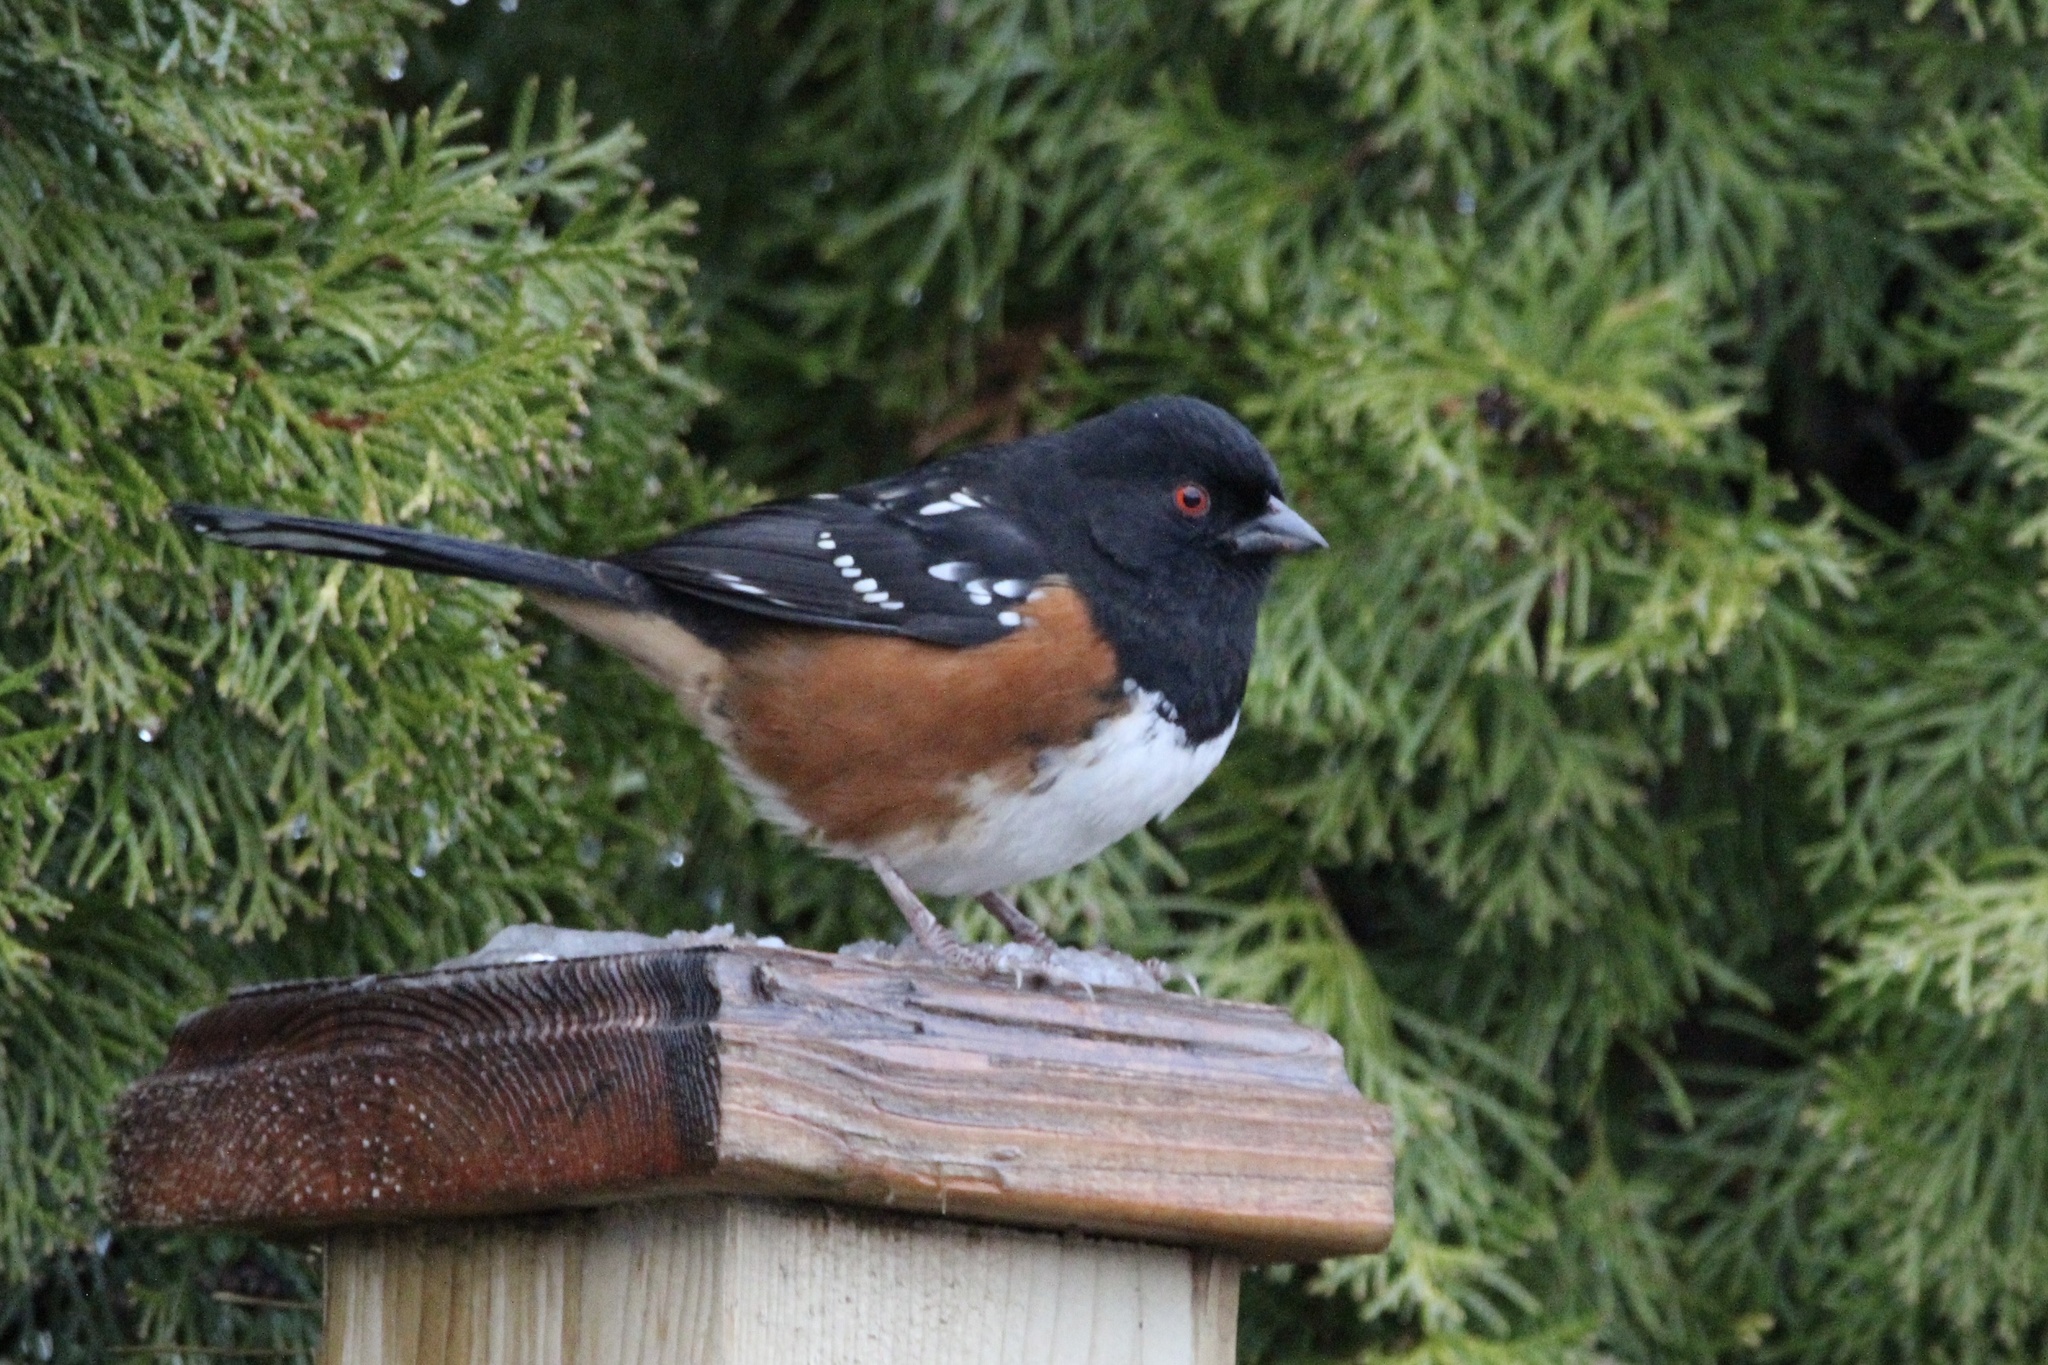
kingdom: Animalia
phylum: Chordata
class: Aves
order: Passeriformes
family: Passerellidae
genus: Pipilo
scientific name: Pipilo maculatus
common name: Spotted towhee
